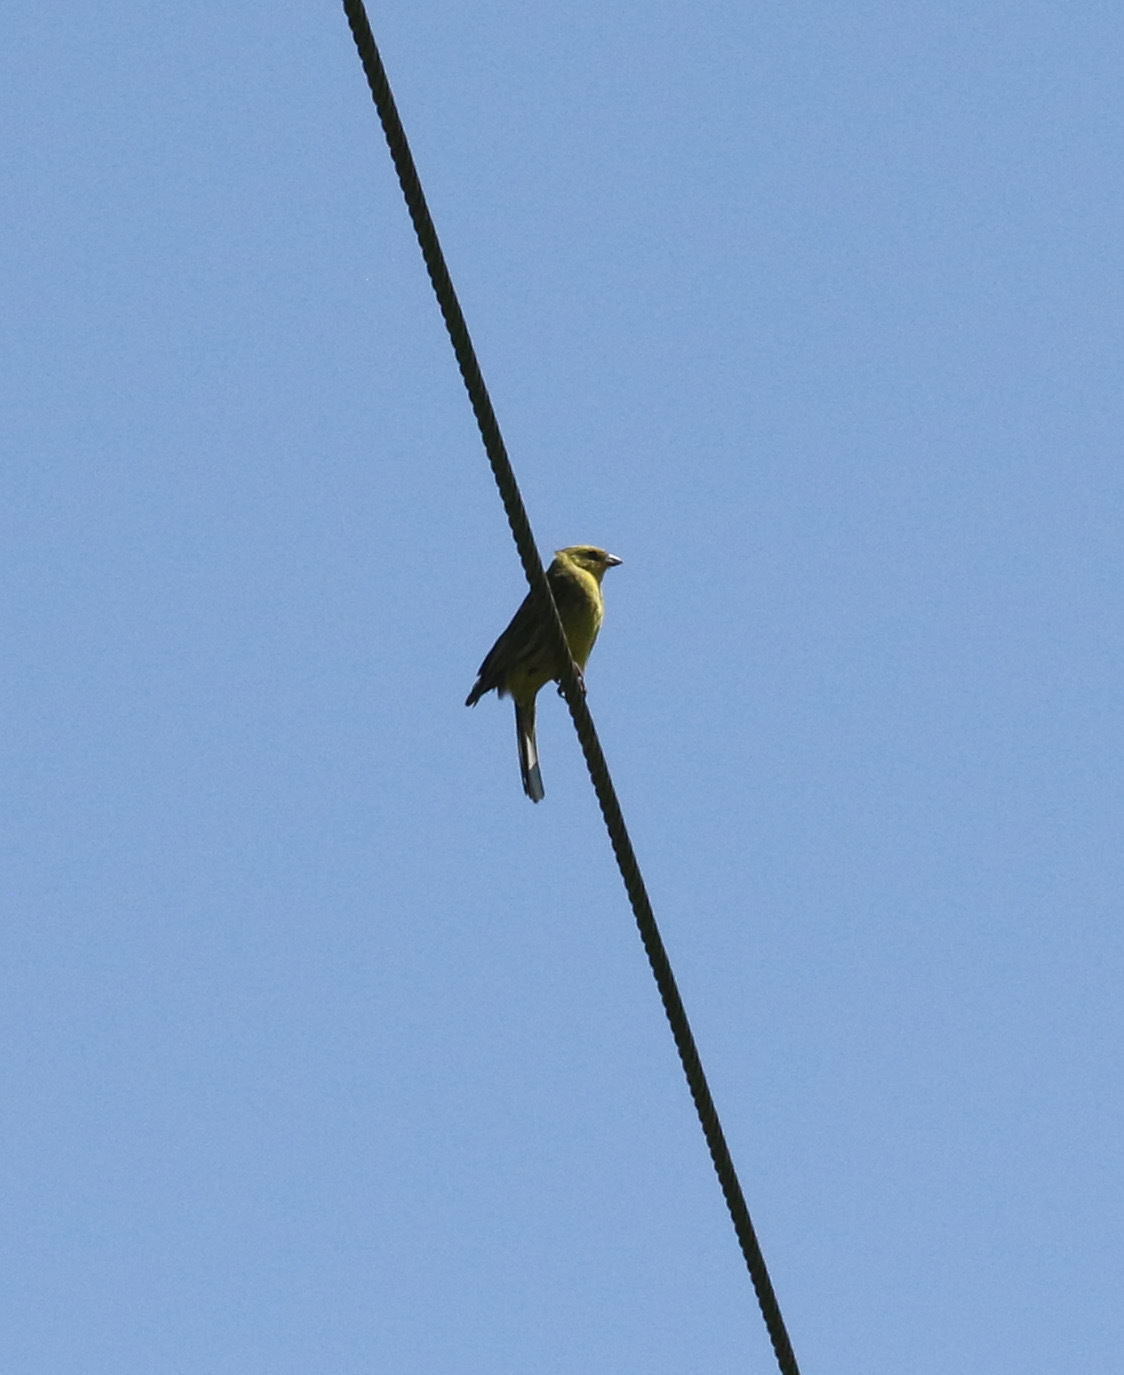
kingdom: Animalia
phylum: Chordata
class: Aves
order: Passeriformes
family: Emberizidae
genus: Emberiza
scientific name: Emberiza citrinella
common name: Yellowhammer
